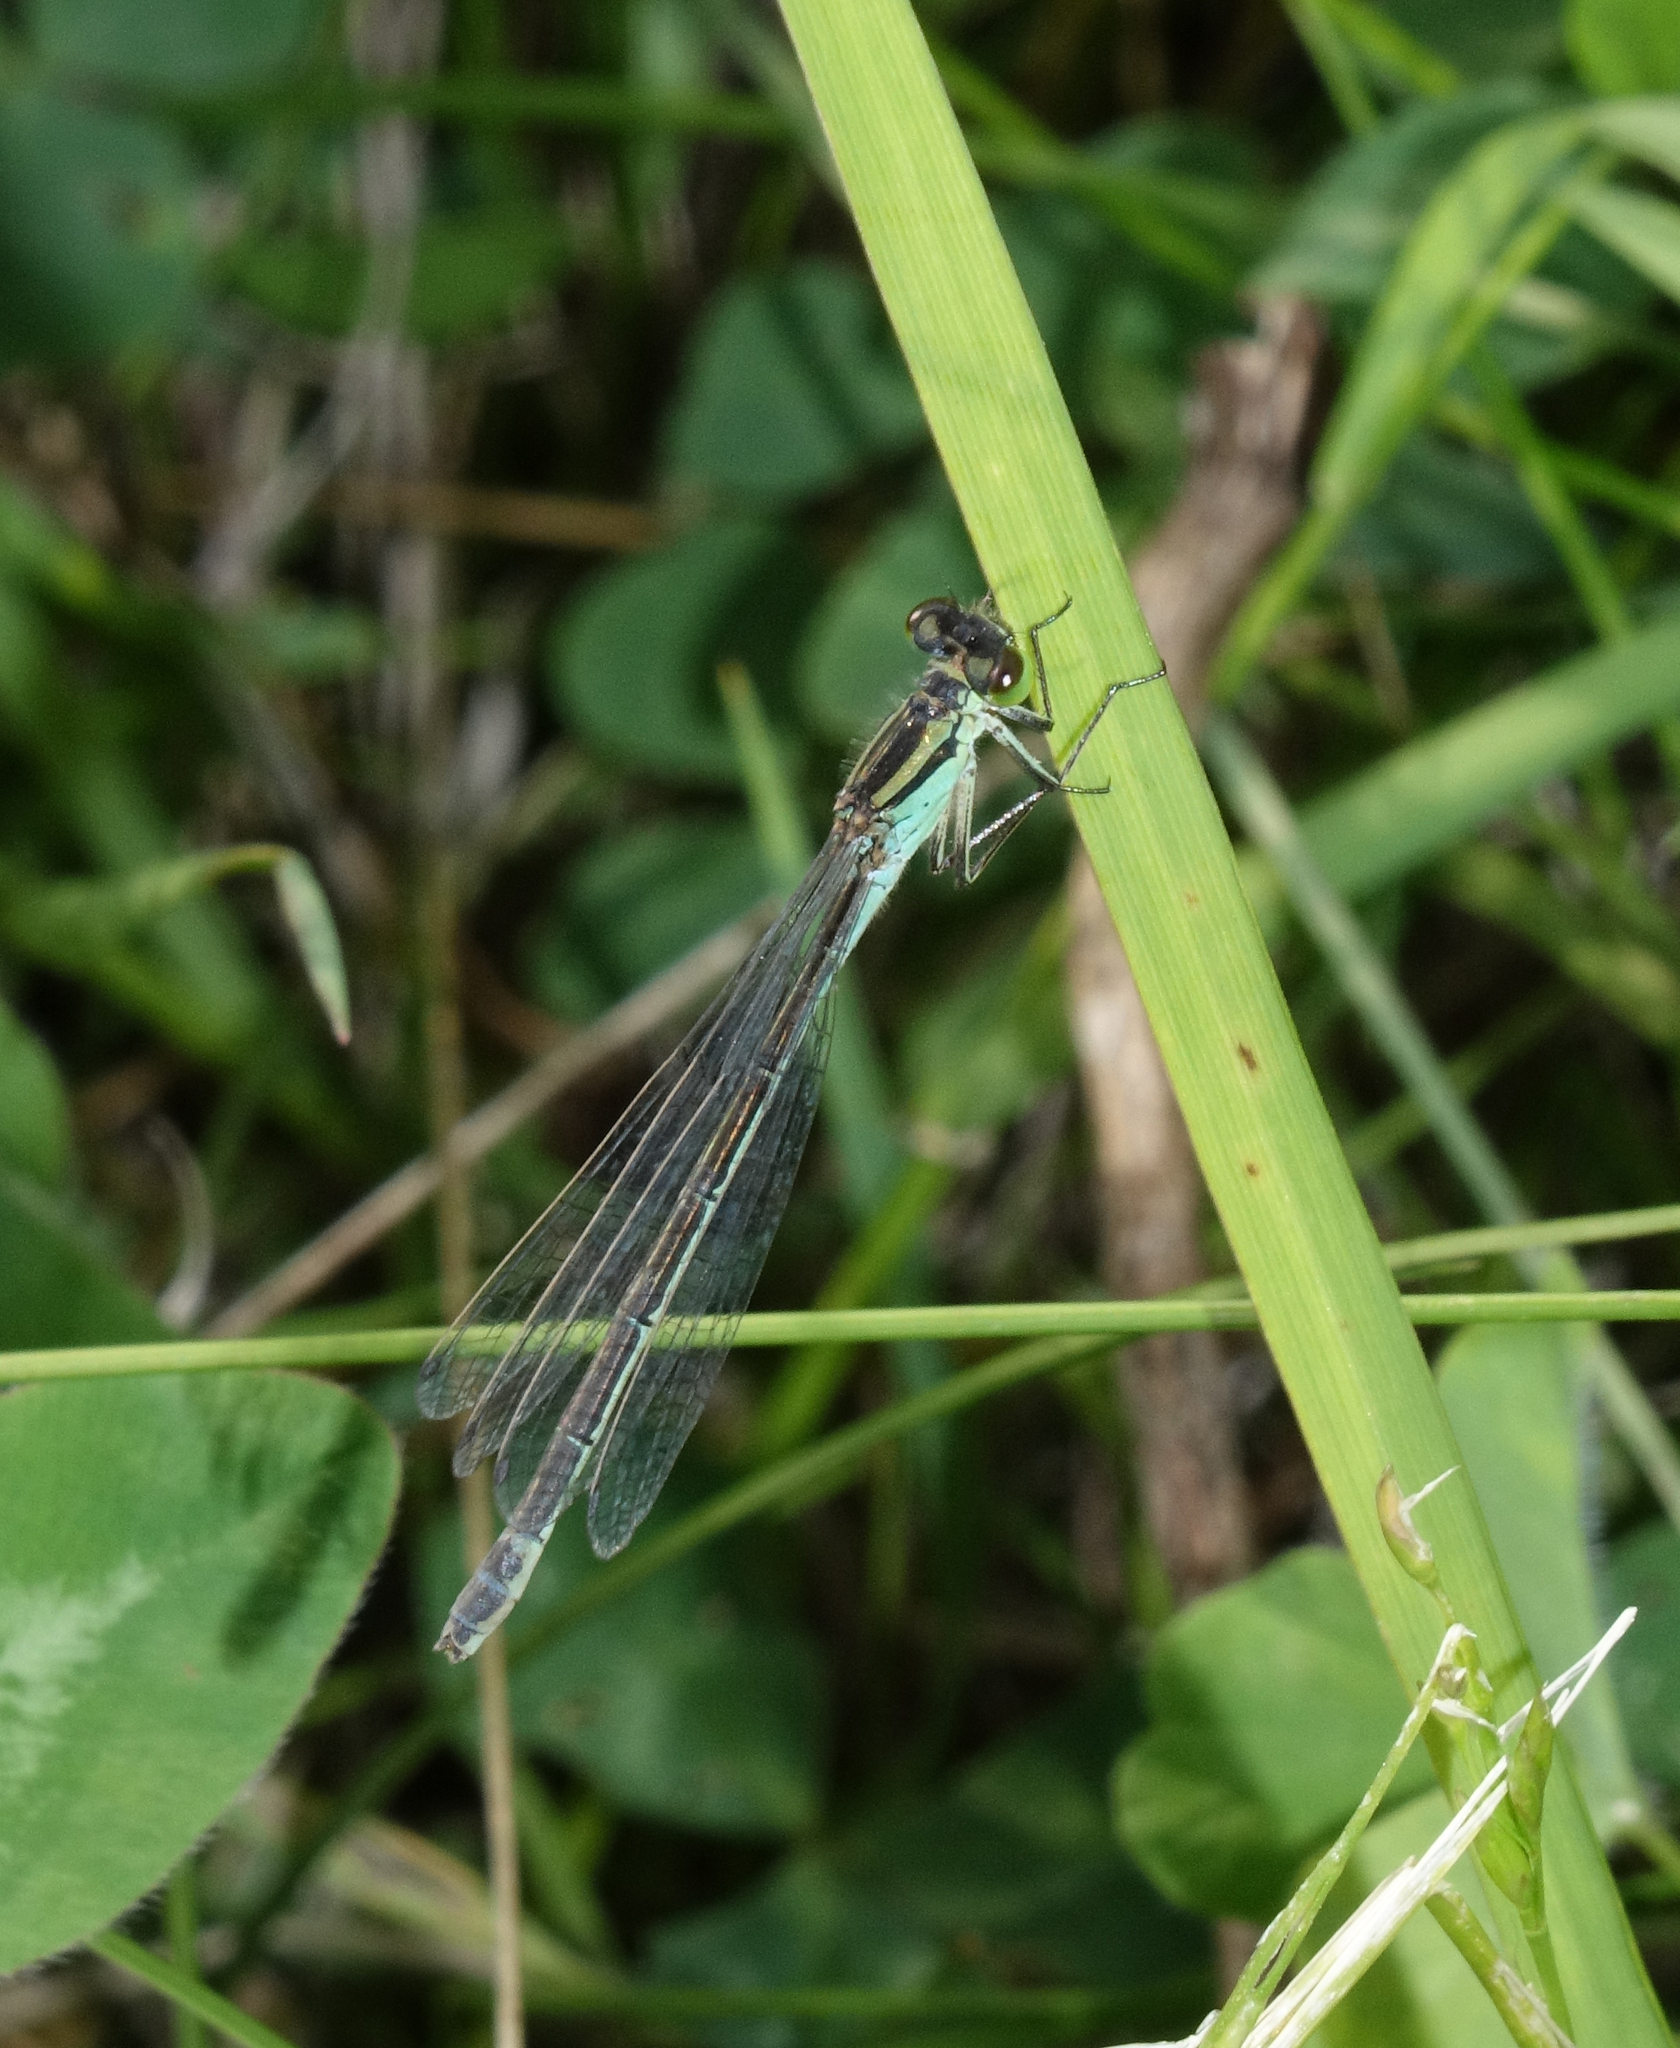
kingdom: Animalia
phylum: Arthropoda
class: Insecta
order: Odonata
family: Coenagrionidae
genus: Coenagrion
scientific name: Coenagrion lunulatum
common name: Irish damselfly
